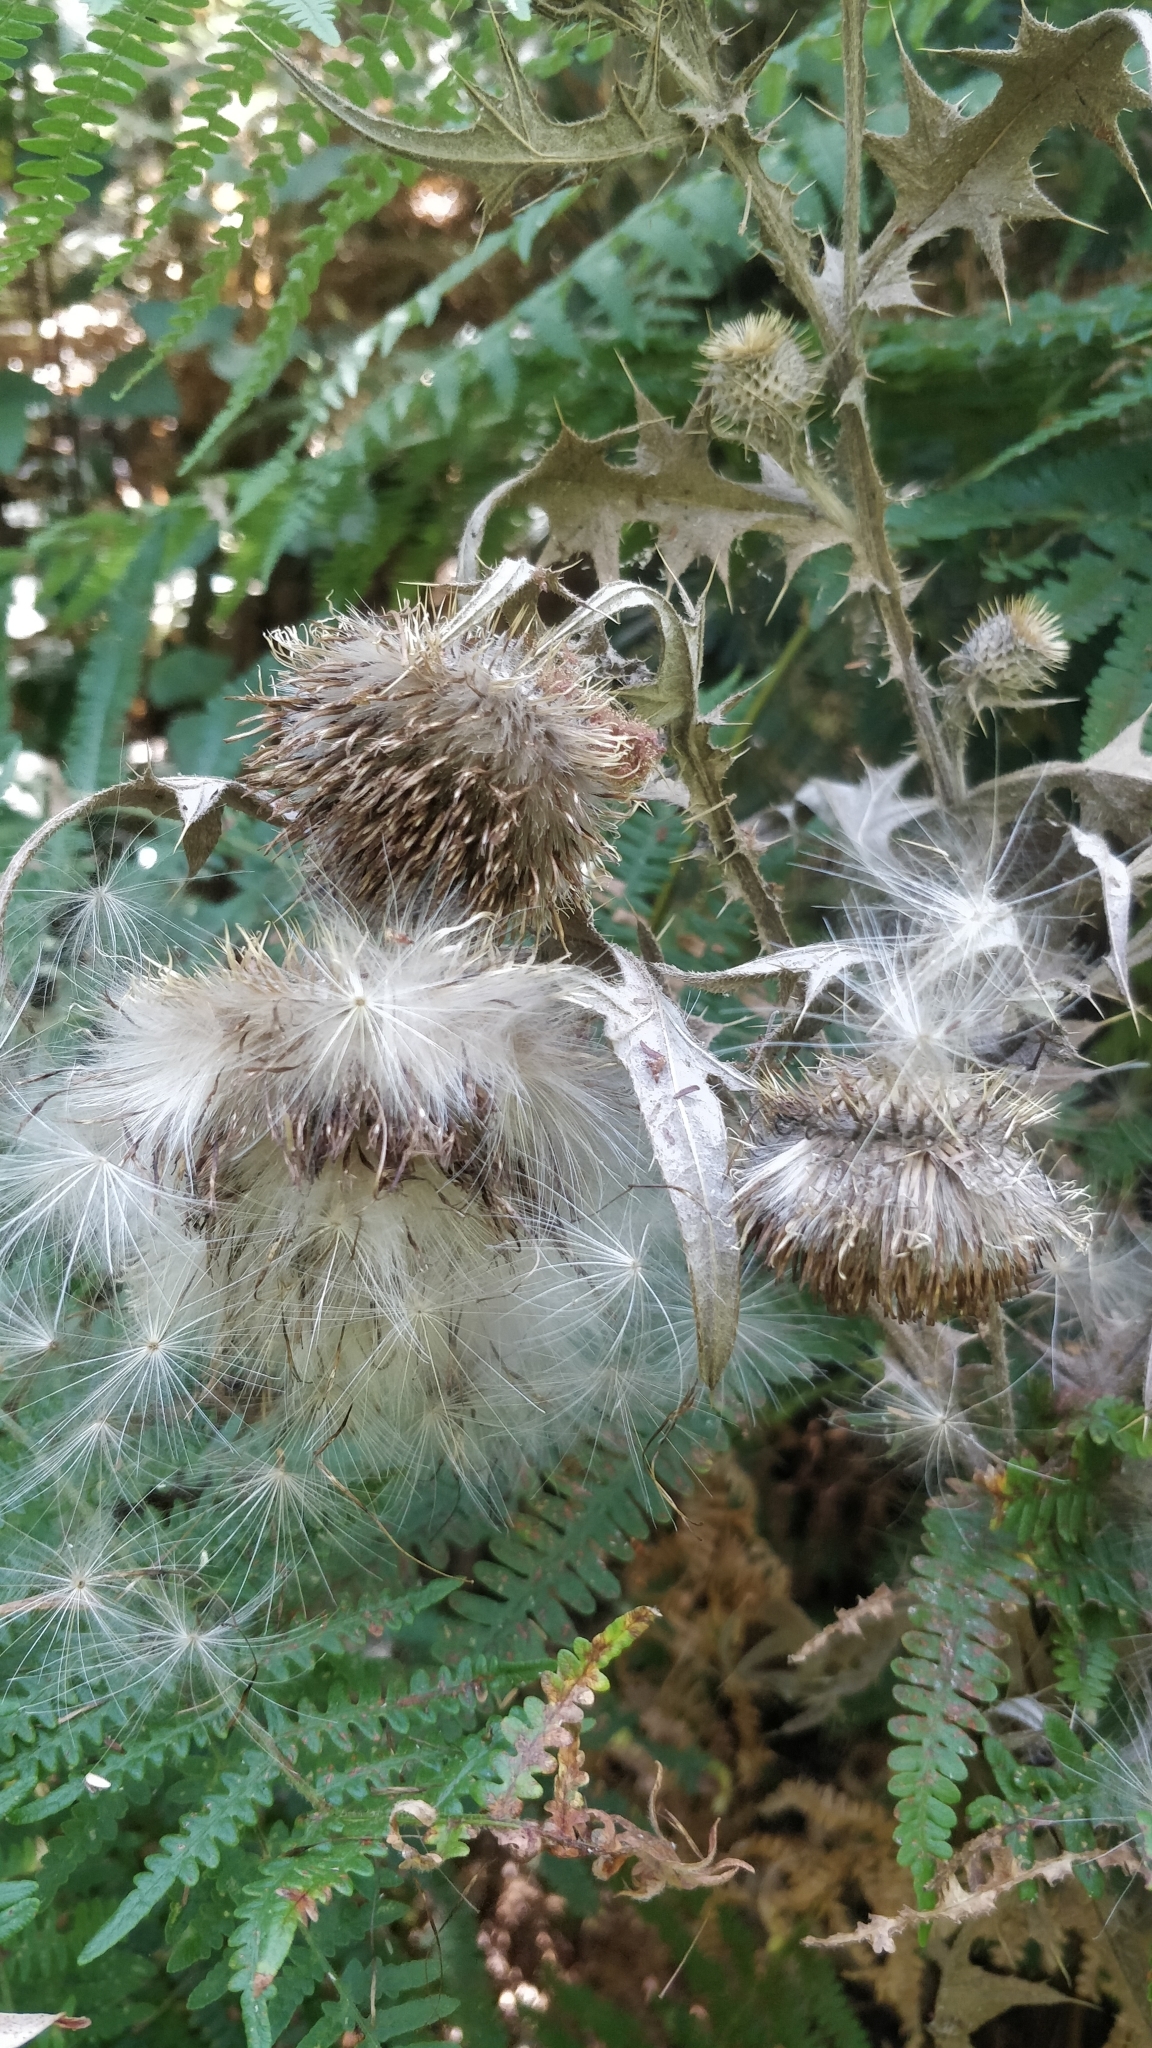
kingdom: Plantae
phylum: Tracheophyta
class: Magnoliopsida
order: Asterales
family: Asteraceae
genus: Cirsium
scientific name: Cirsium vulgare
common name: Bull thistle
